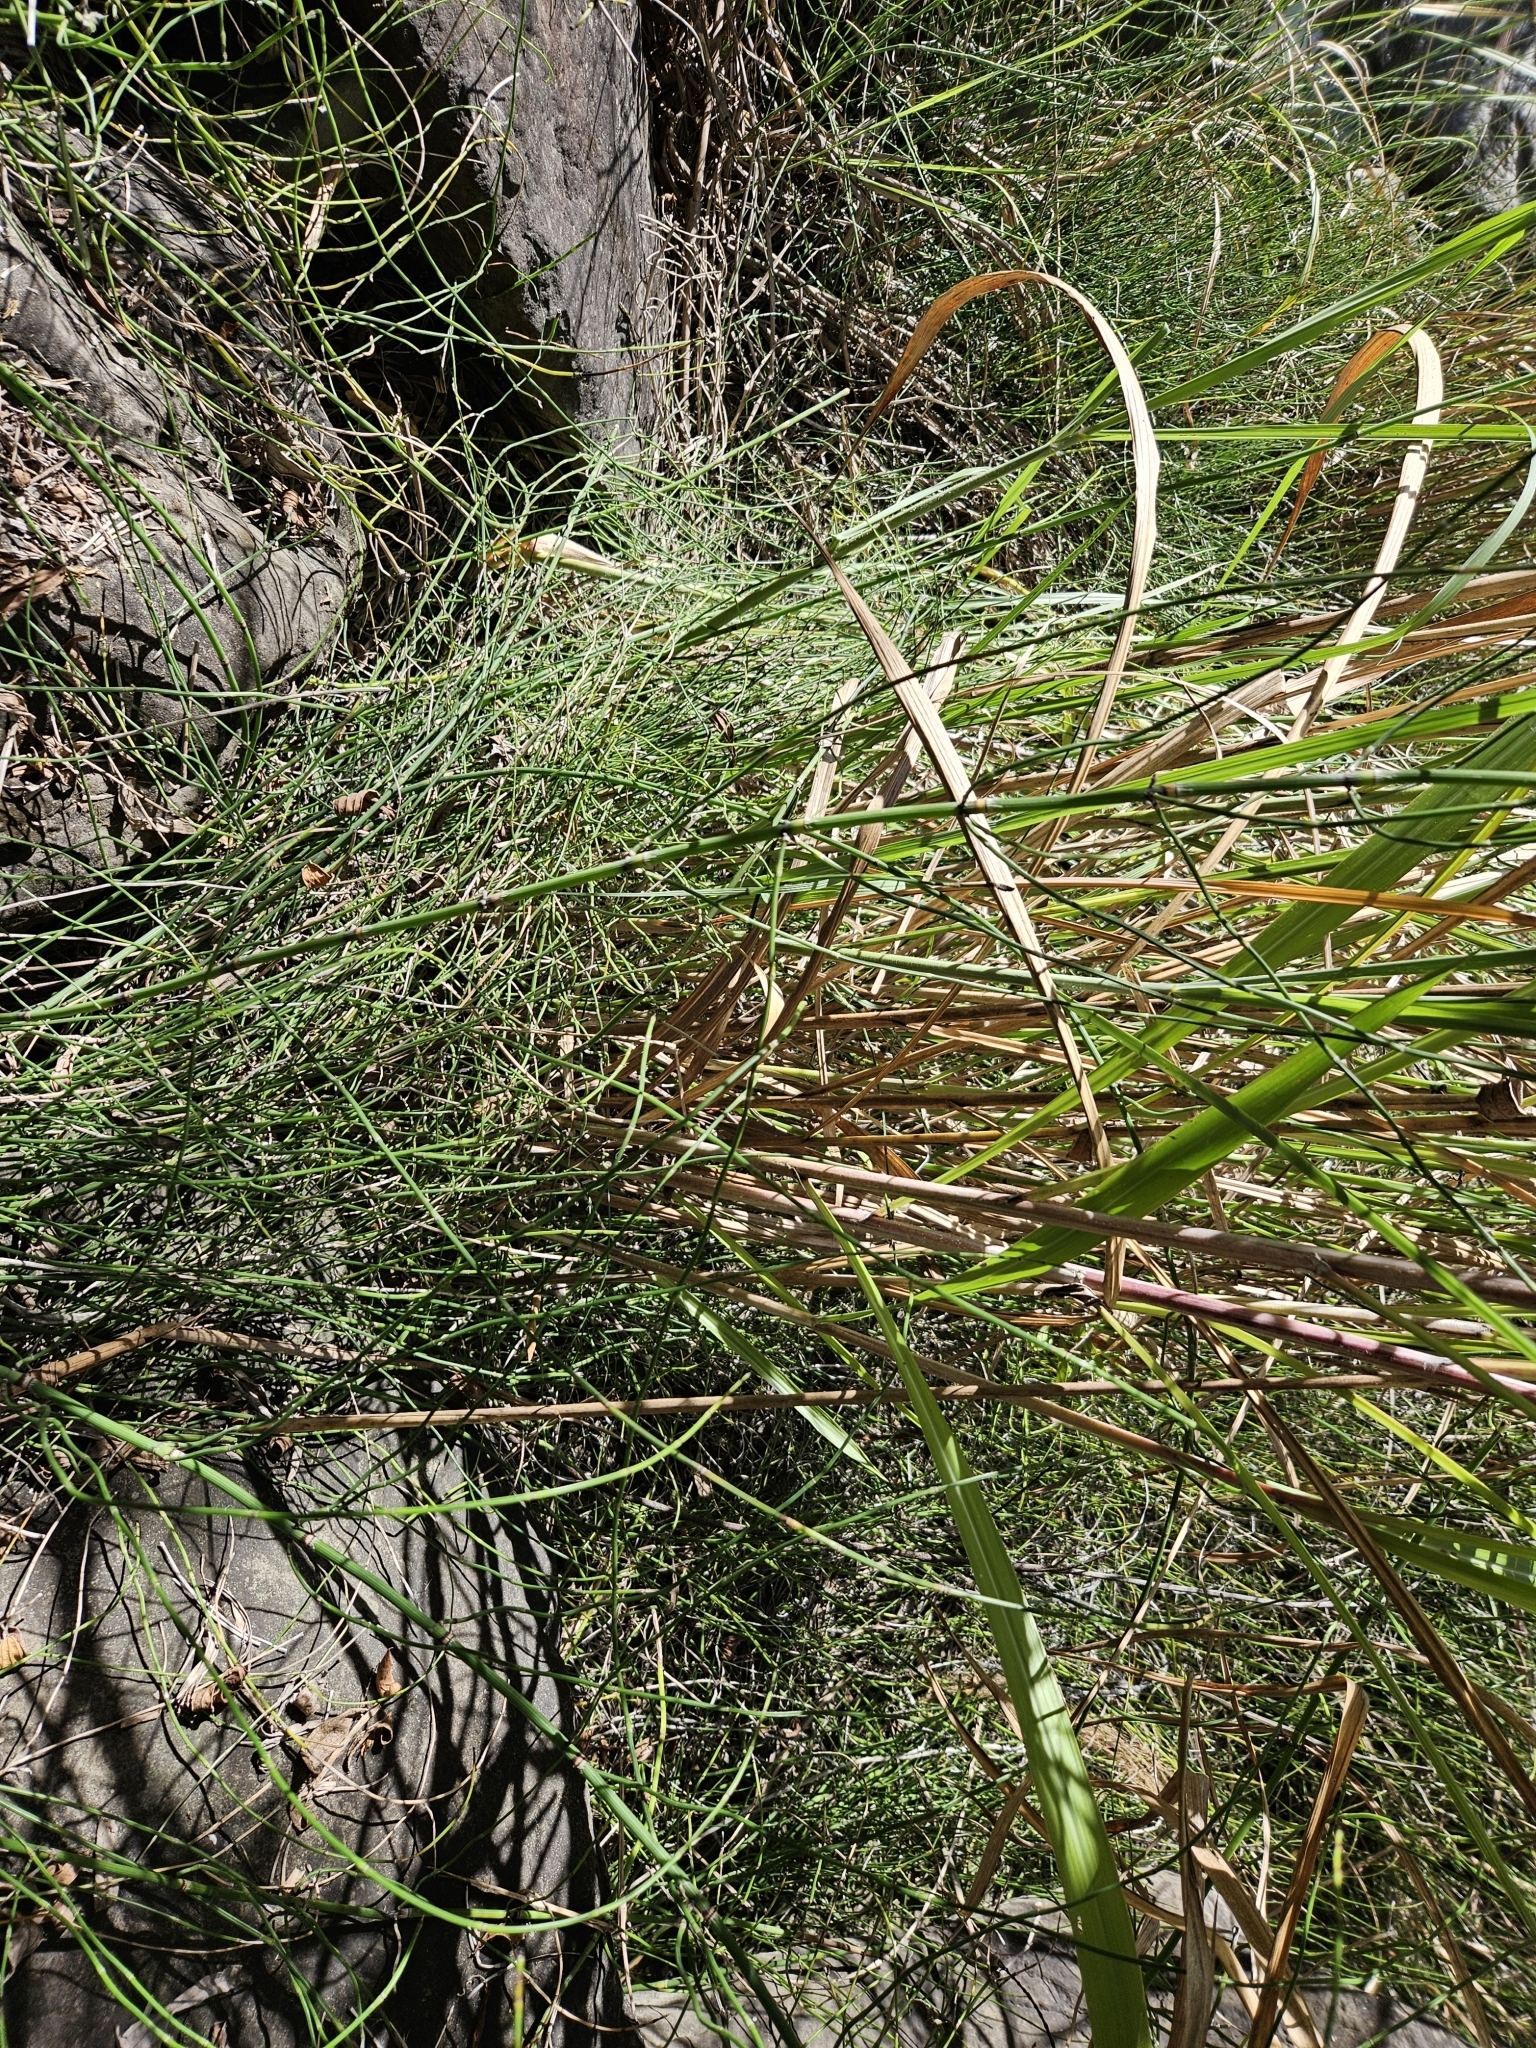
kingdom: Plantae
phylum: Tracheophyta
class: Polypodiopsida
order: Equisetales
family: Equisetaceae
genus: Equisetum
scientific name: Equisetum ramosissimum
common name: Branched horsetail
